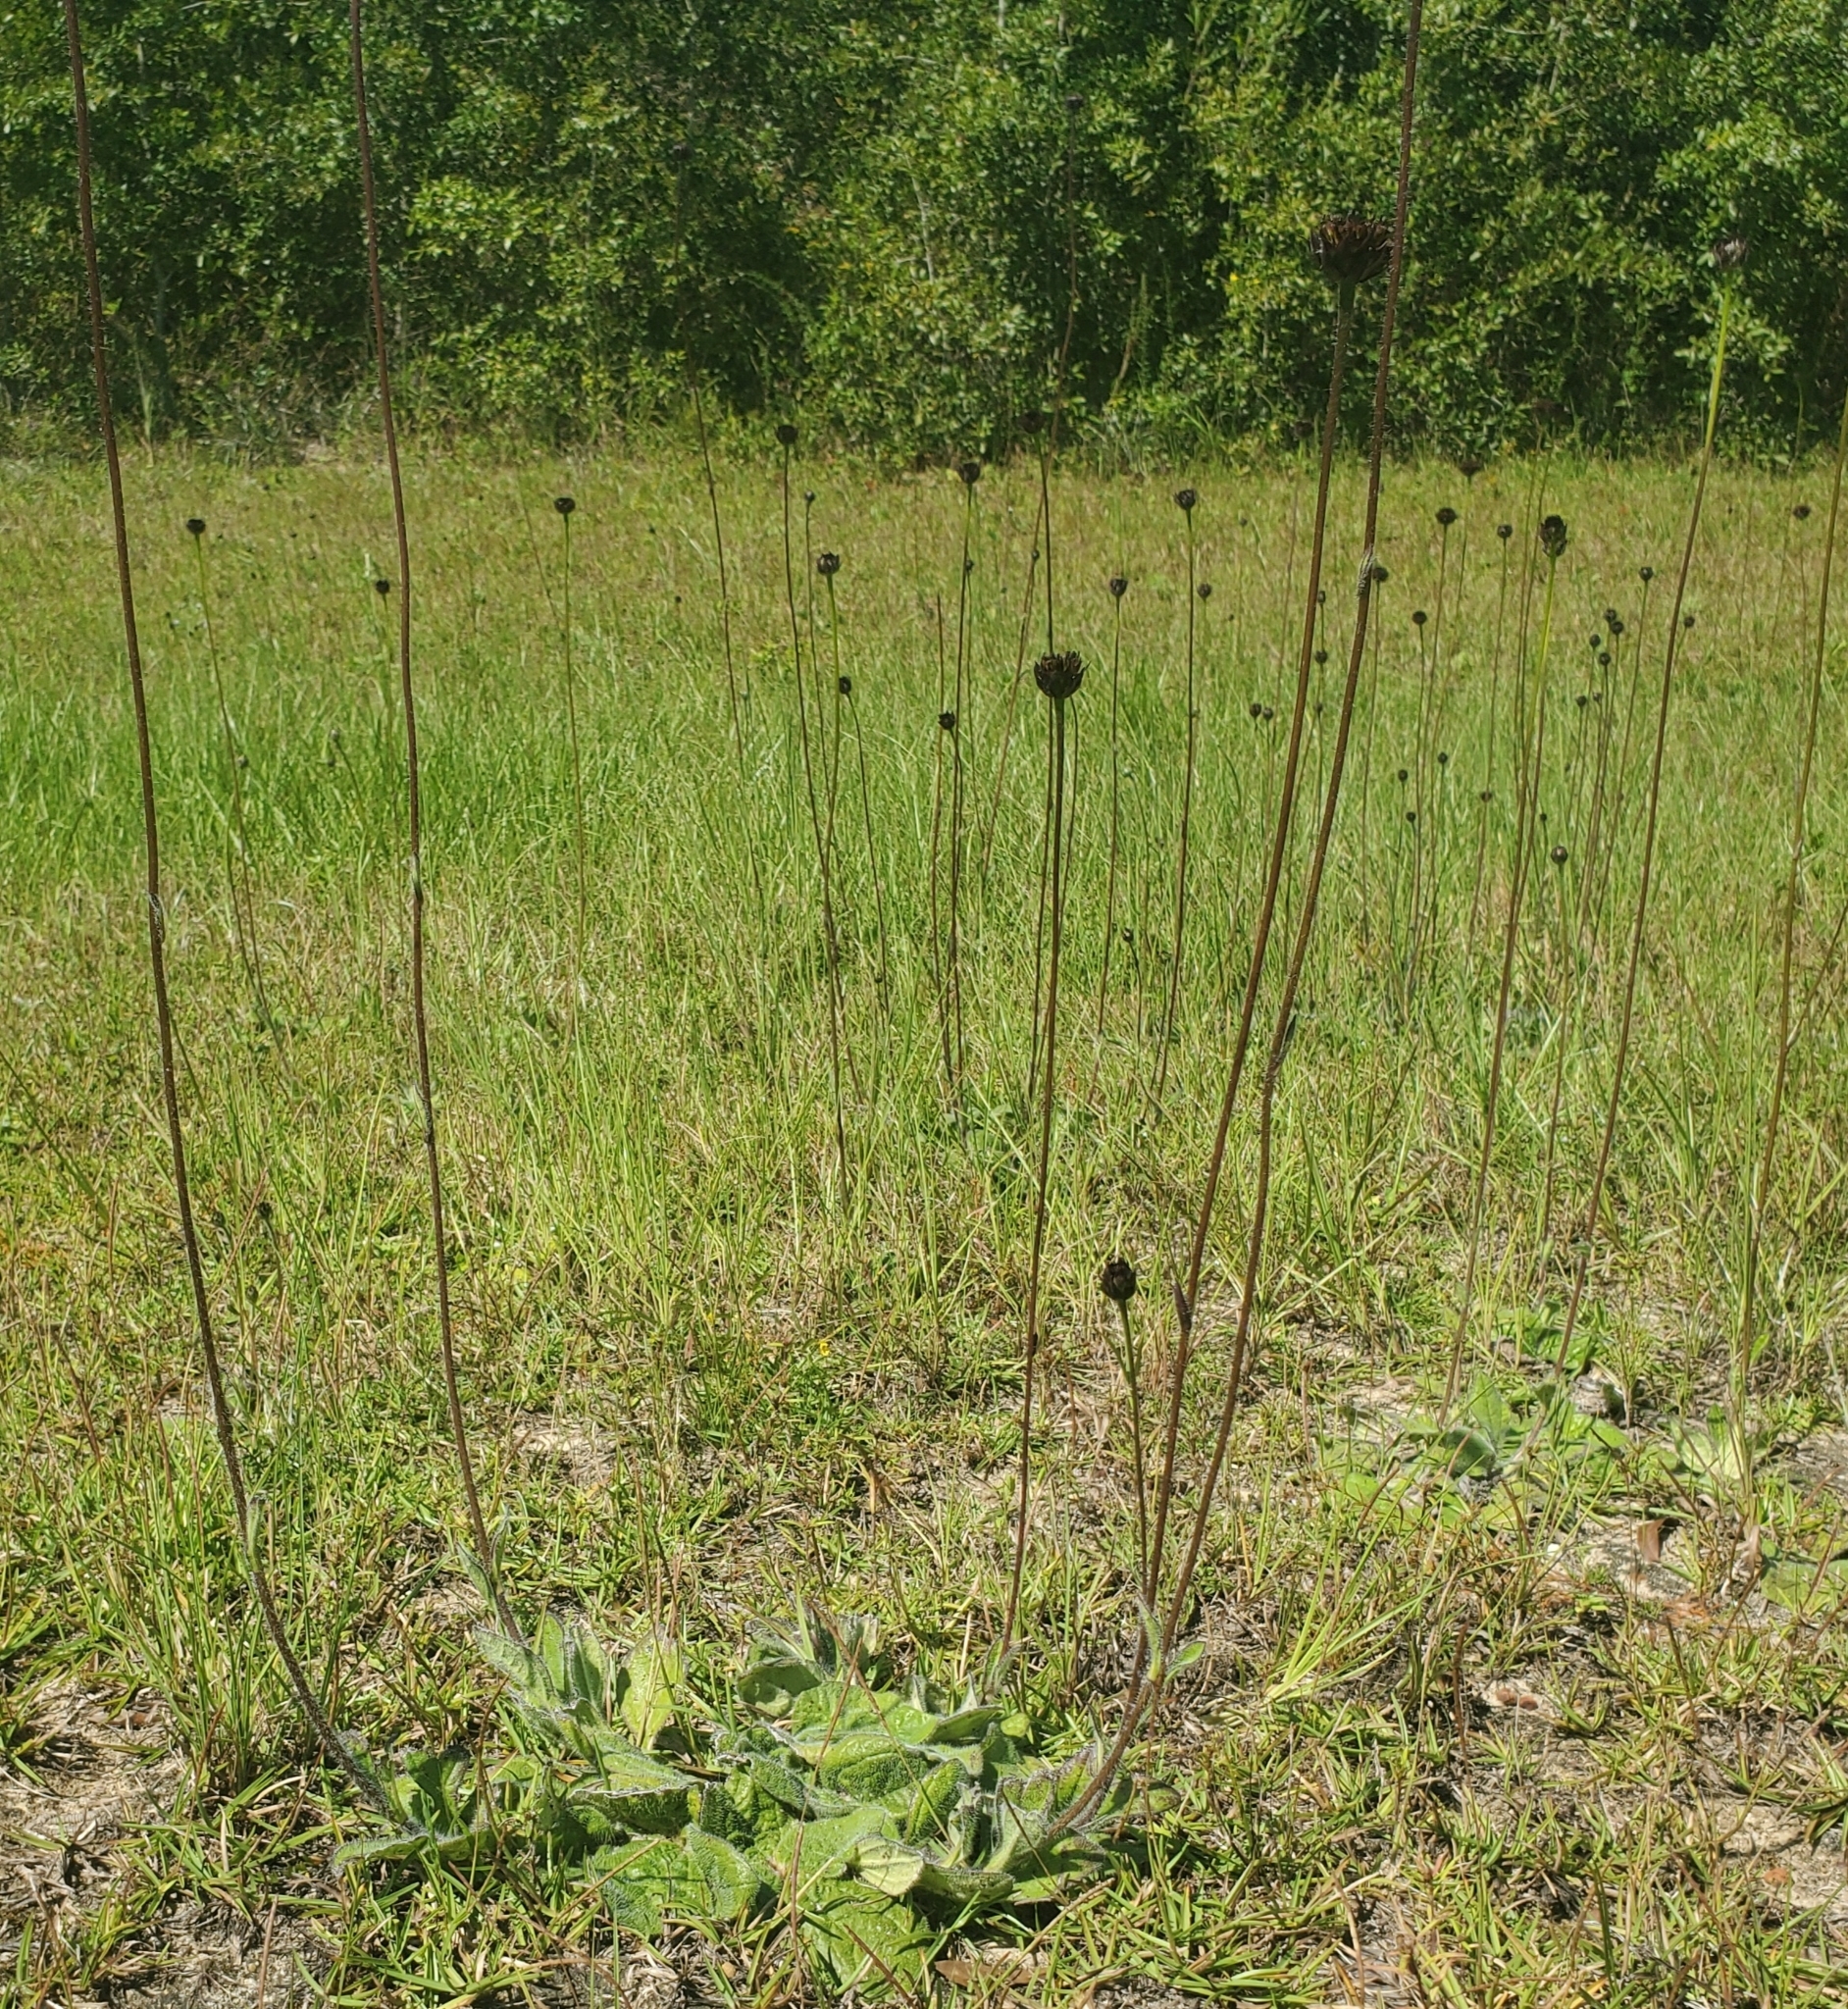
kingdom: Plantae
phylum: Tracheophyta
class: Magnoliopsida
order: Asterales
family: Asteraceae
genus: Helianthus
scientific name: Helianthus radula
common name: Pineland sunflower
